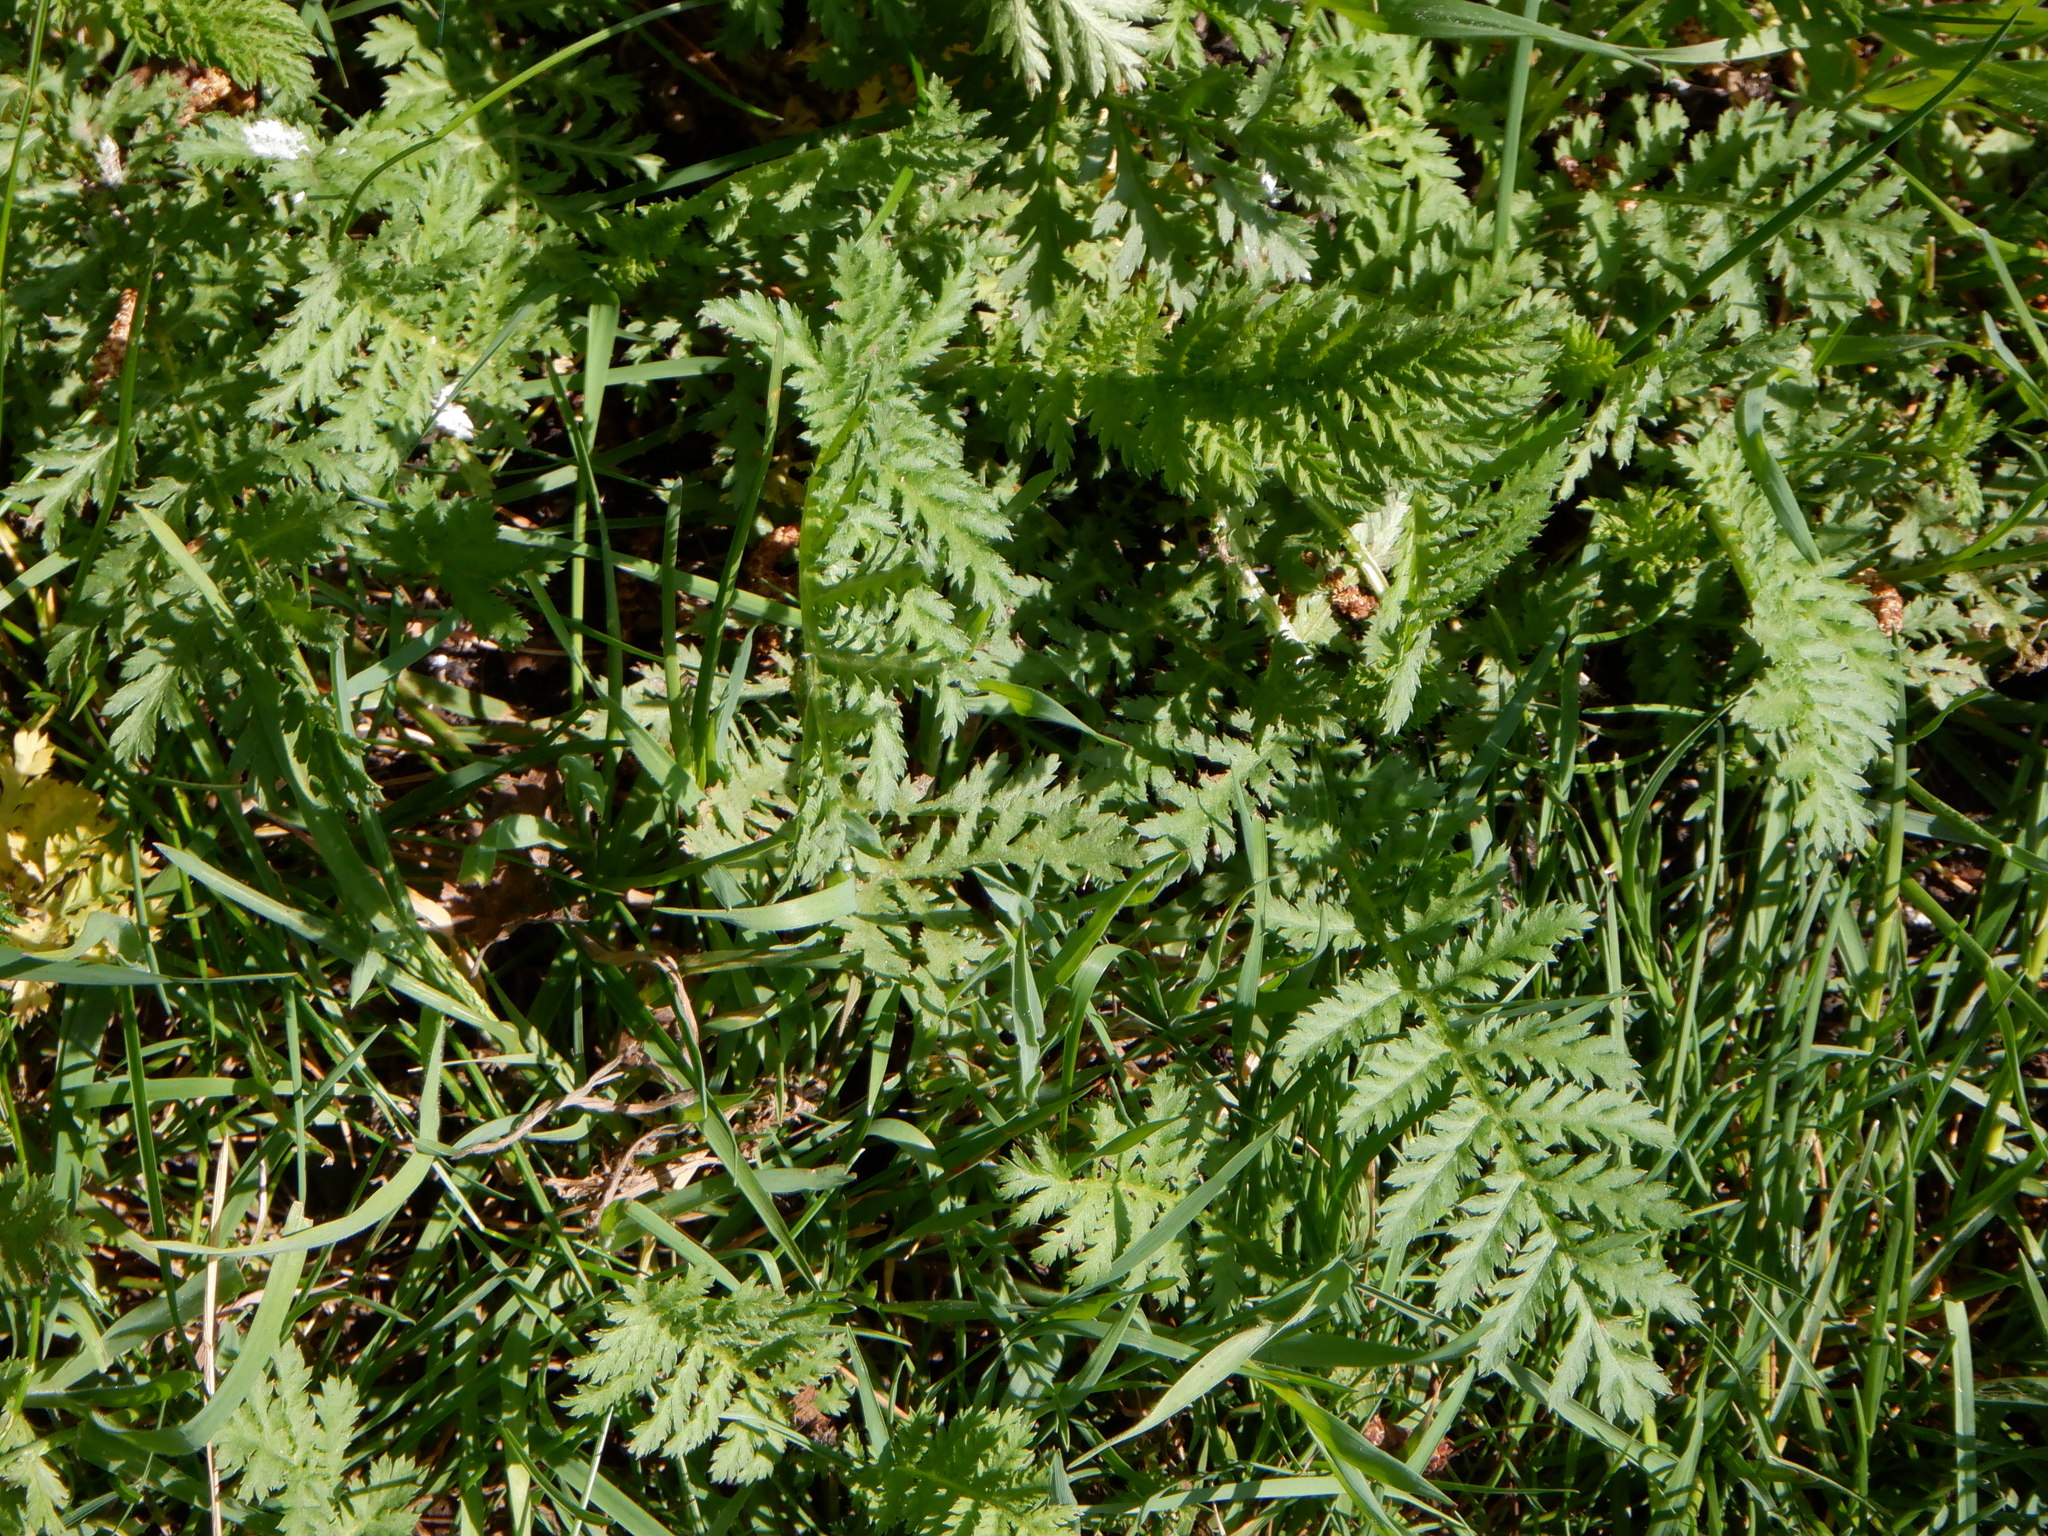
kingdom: Plantae
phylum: Tracheophyta
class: Magnoliopsida
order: Asterales
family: Asteraceae
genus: Tanacetum
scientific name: Tanacetum vulgare
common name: Common tansy
